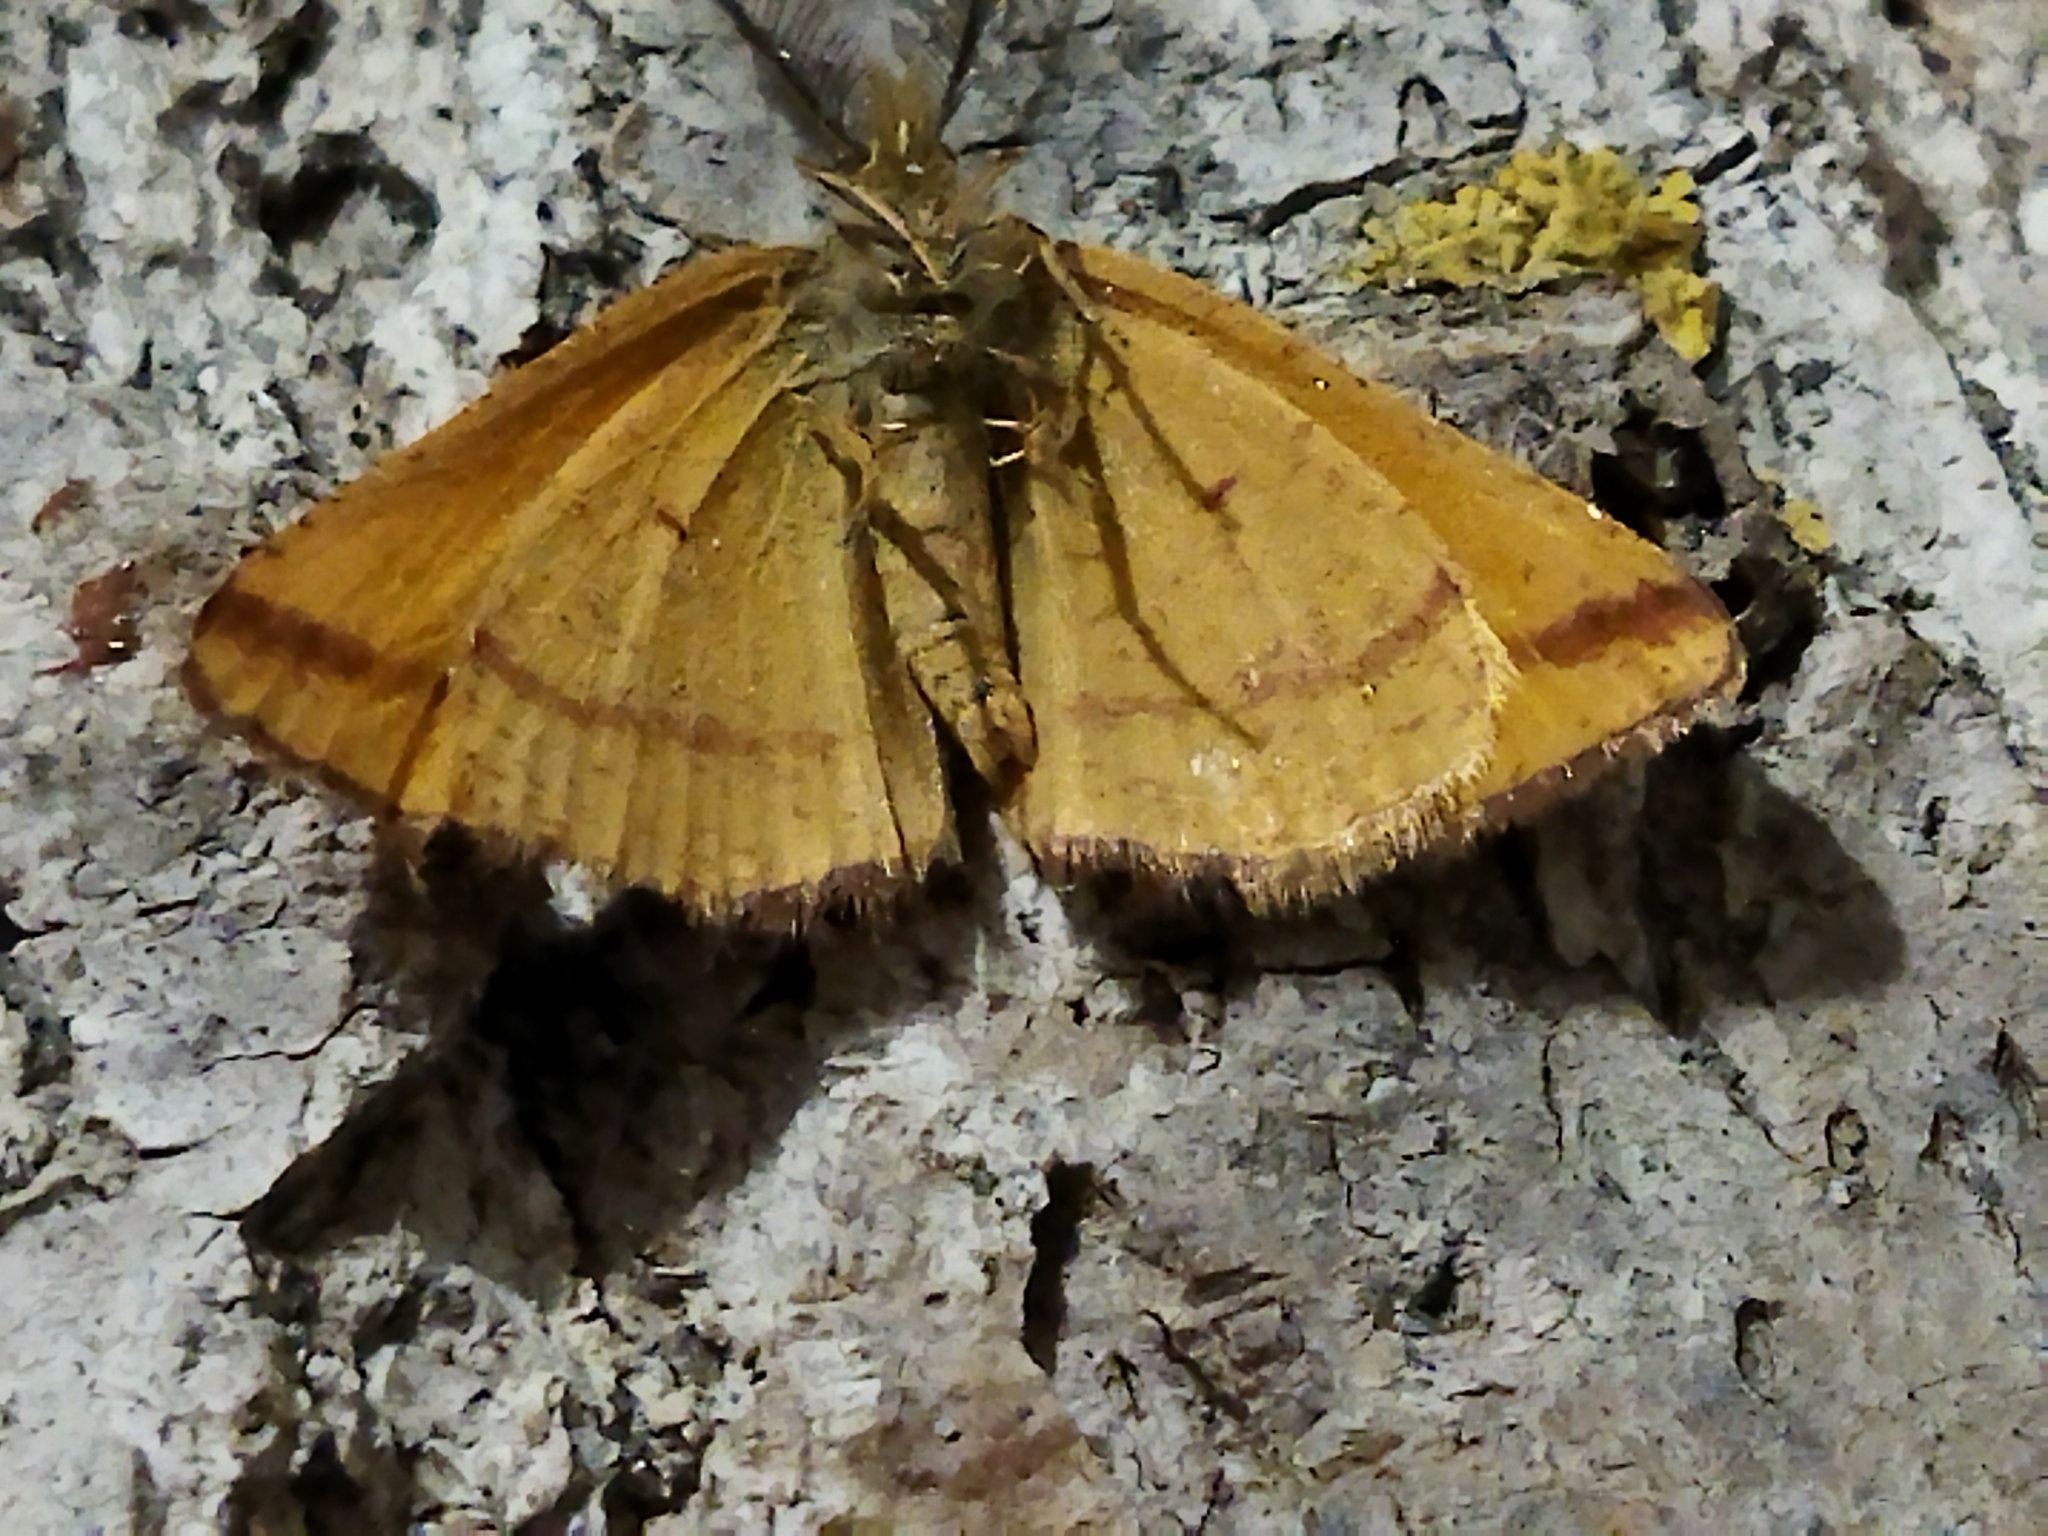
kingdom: Animalia
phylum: Arthropoda
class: Insecta
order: Lepidoptera
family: Geometridae
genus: Lythria
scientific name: Lythria purpuraria
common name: Purple-barred yellow
